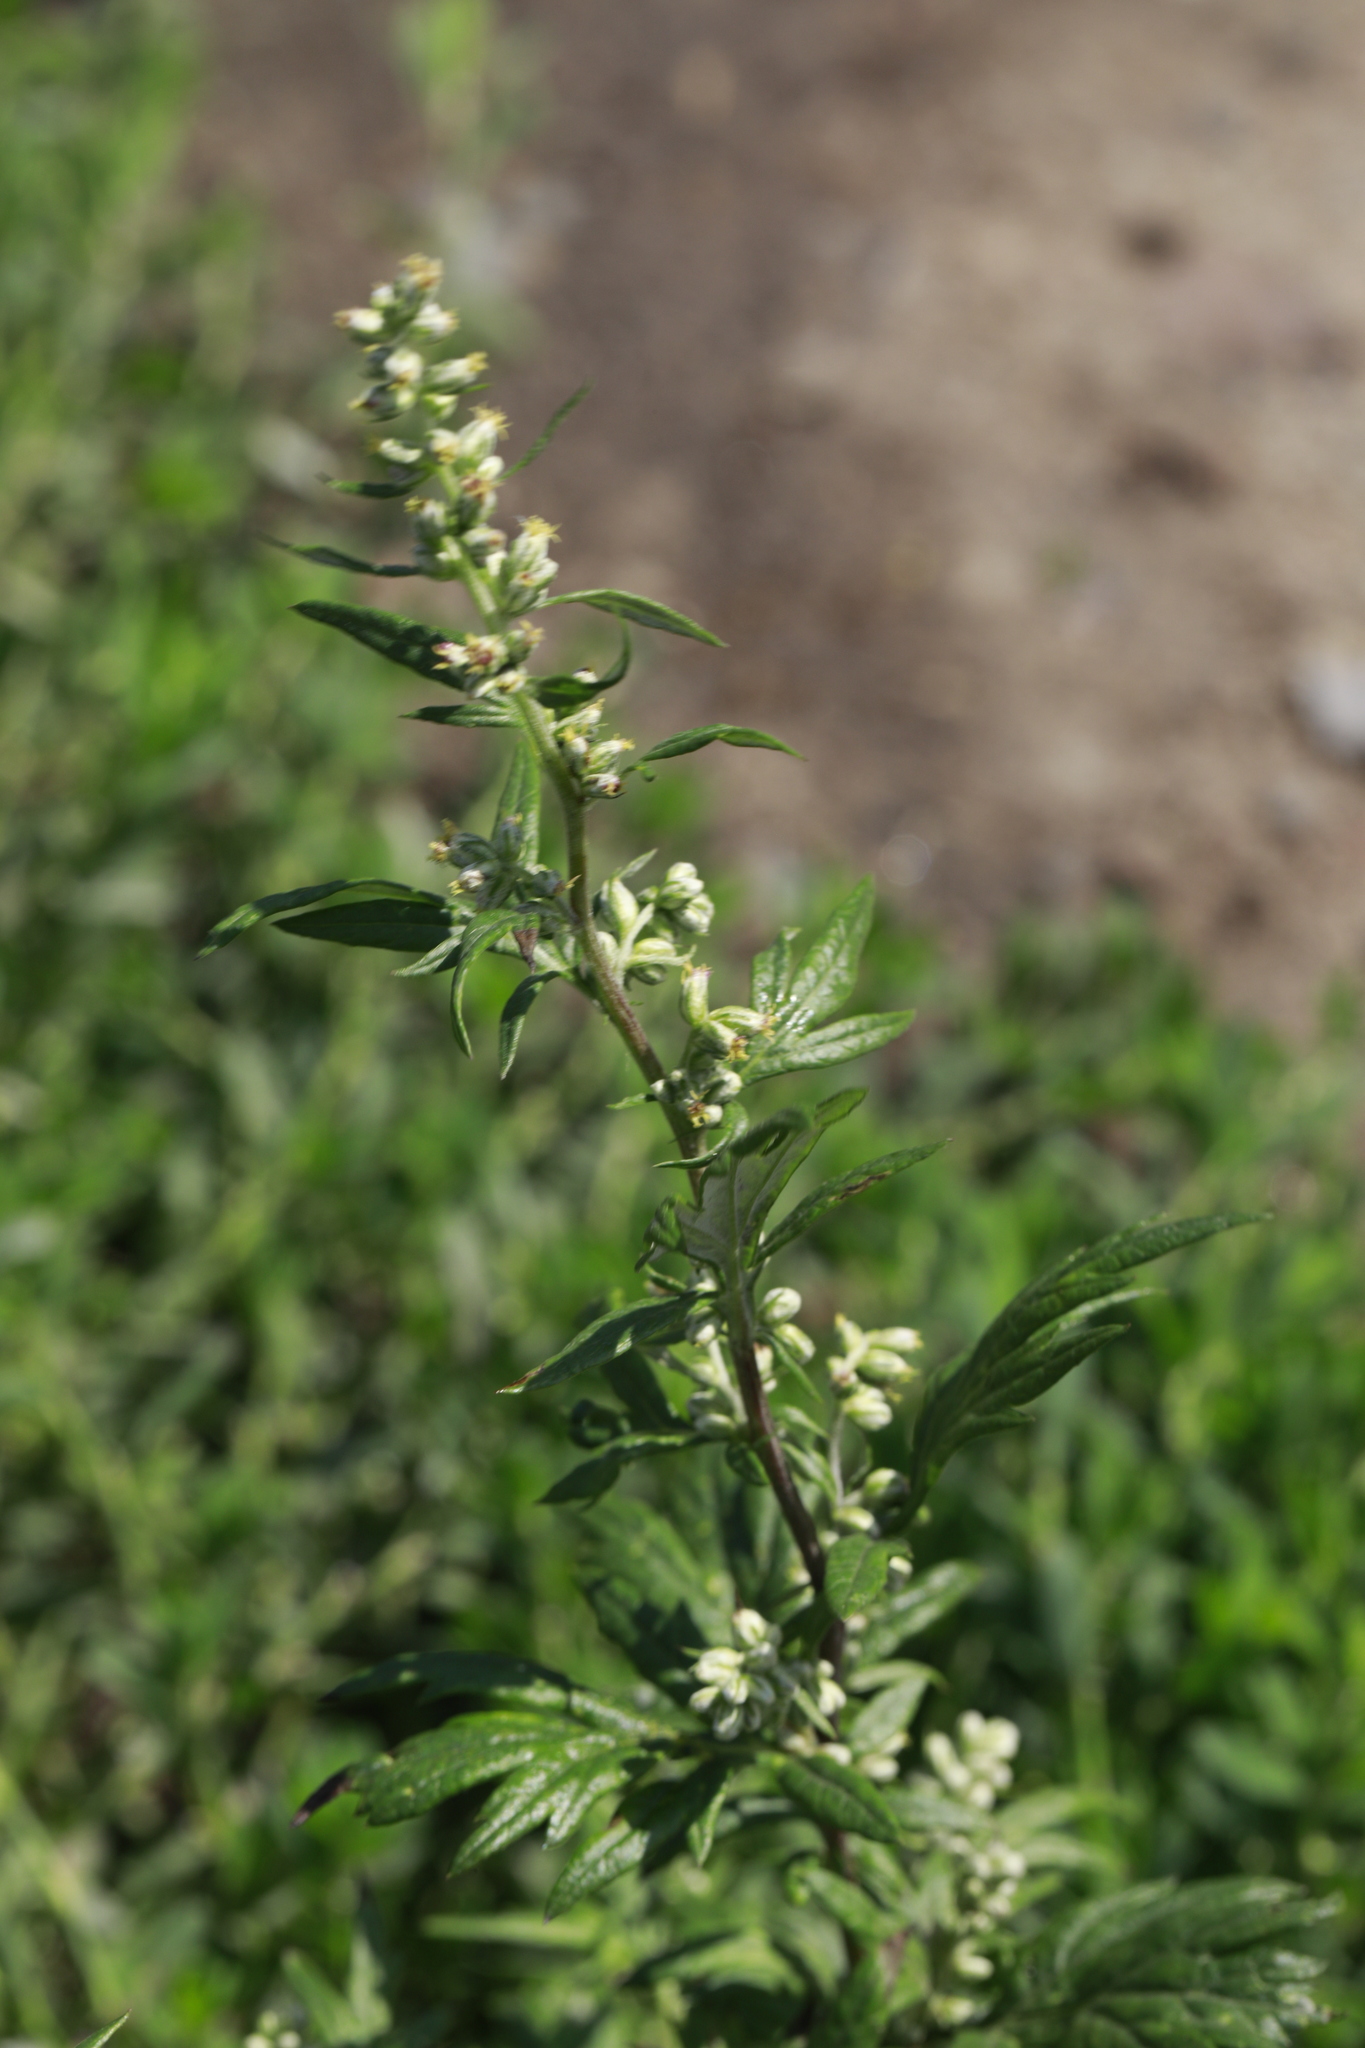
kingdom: Plantae
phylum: Tracheophyta
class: Magnoliopsida
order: Asterales
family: Asteraceae
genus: Artemisia
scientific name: Artemisia vulgaris
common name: Mugwort
